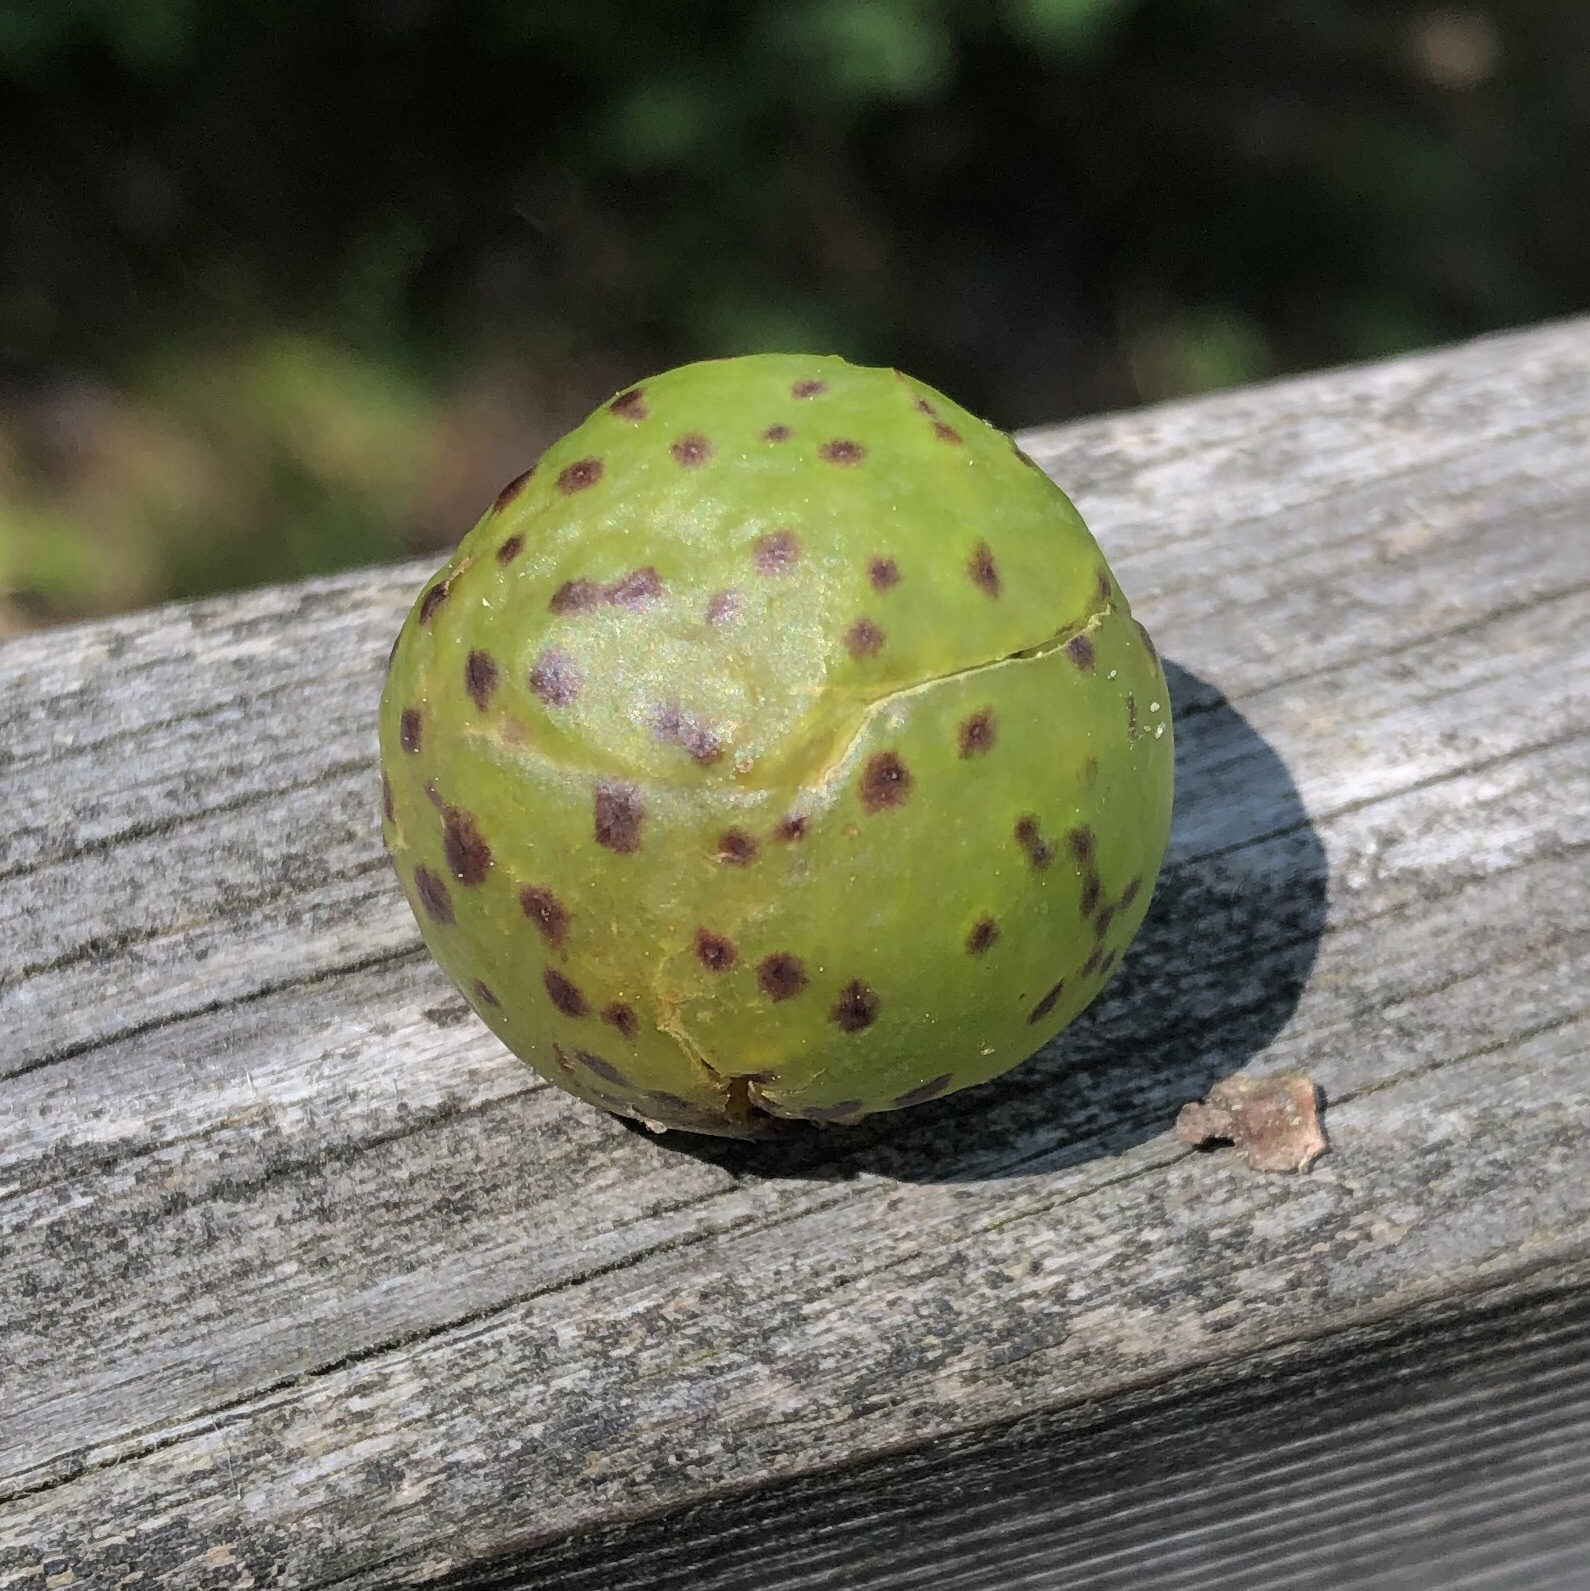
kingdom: Animalia
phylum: Arthropoda
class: Insecta
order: Hymenoptera
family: Cynipidae
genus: Amphibolips
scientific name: Amphibolips
